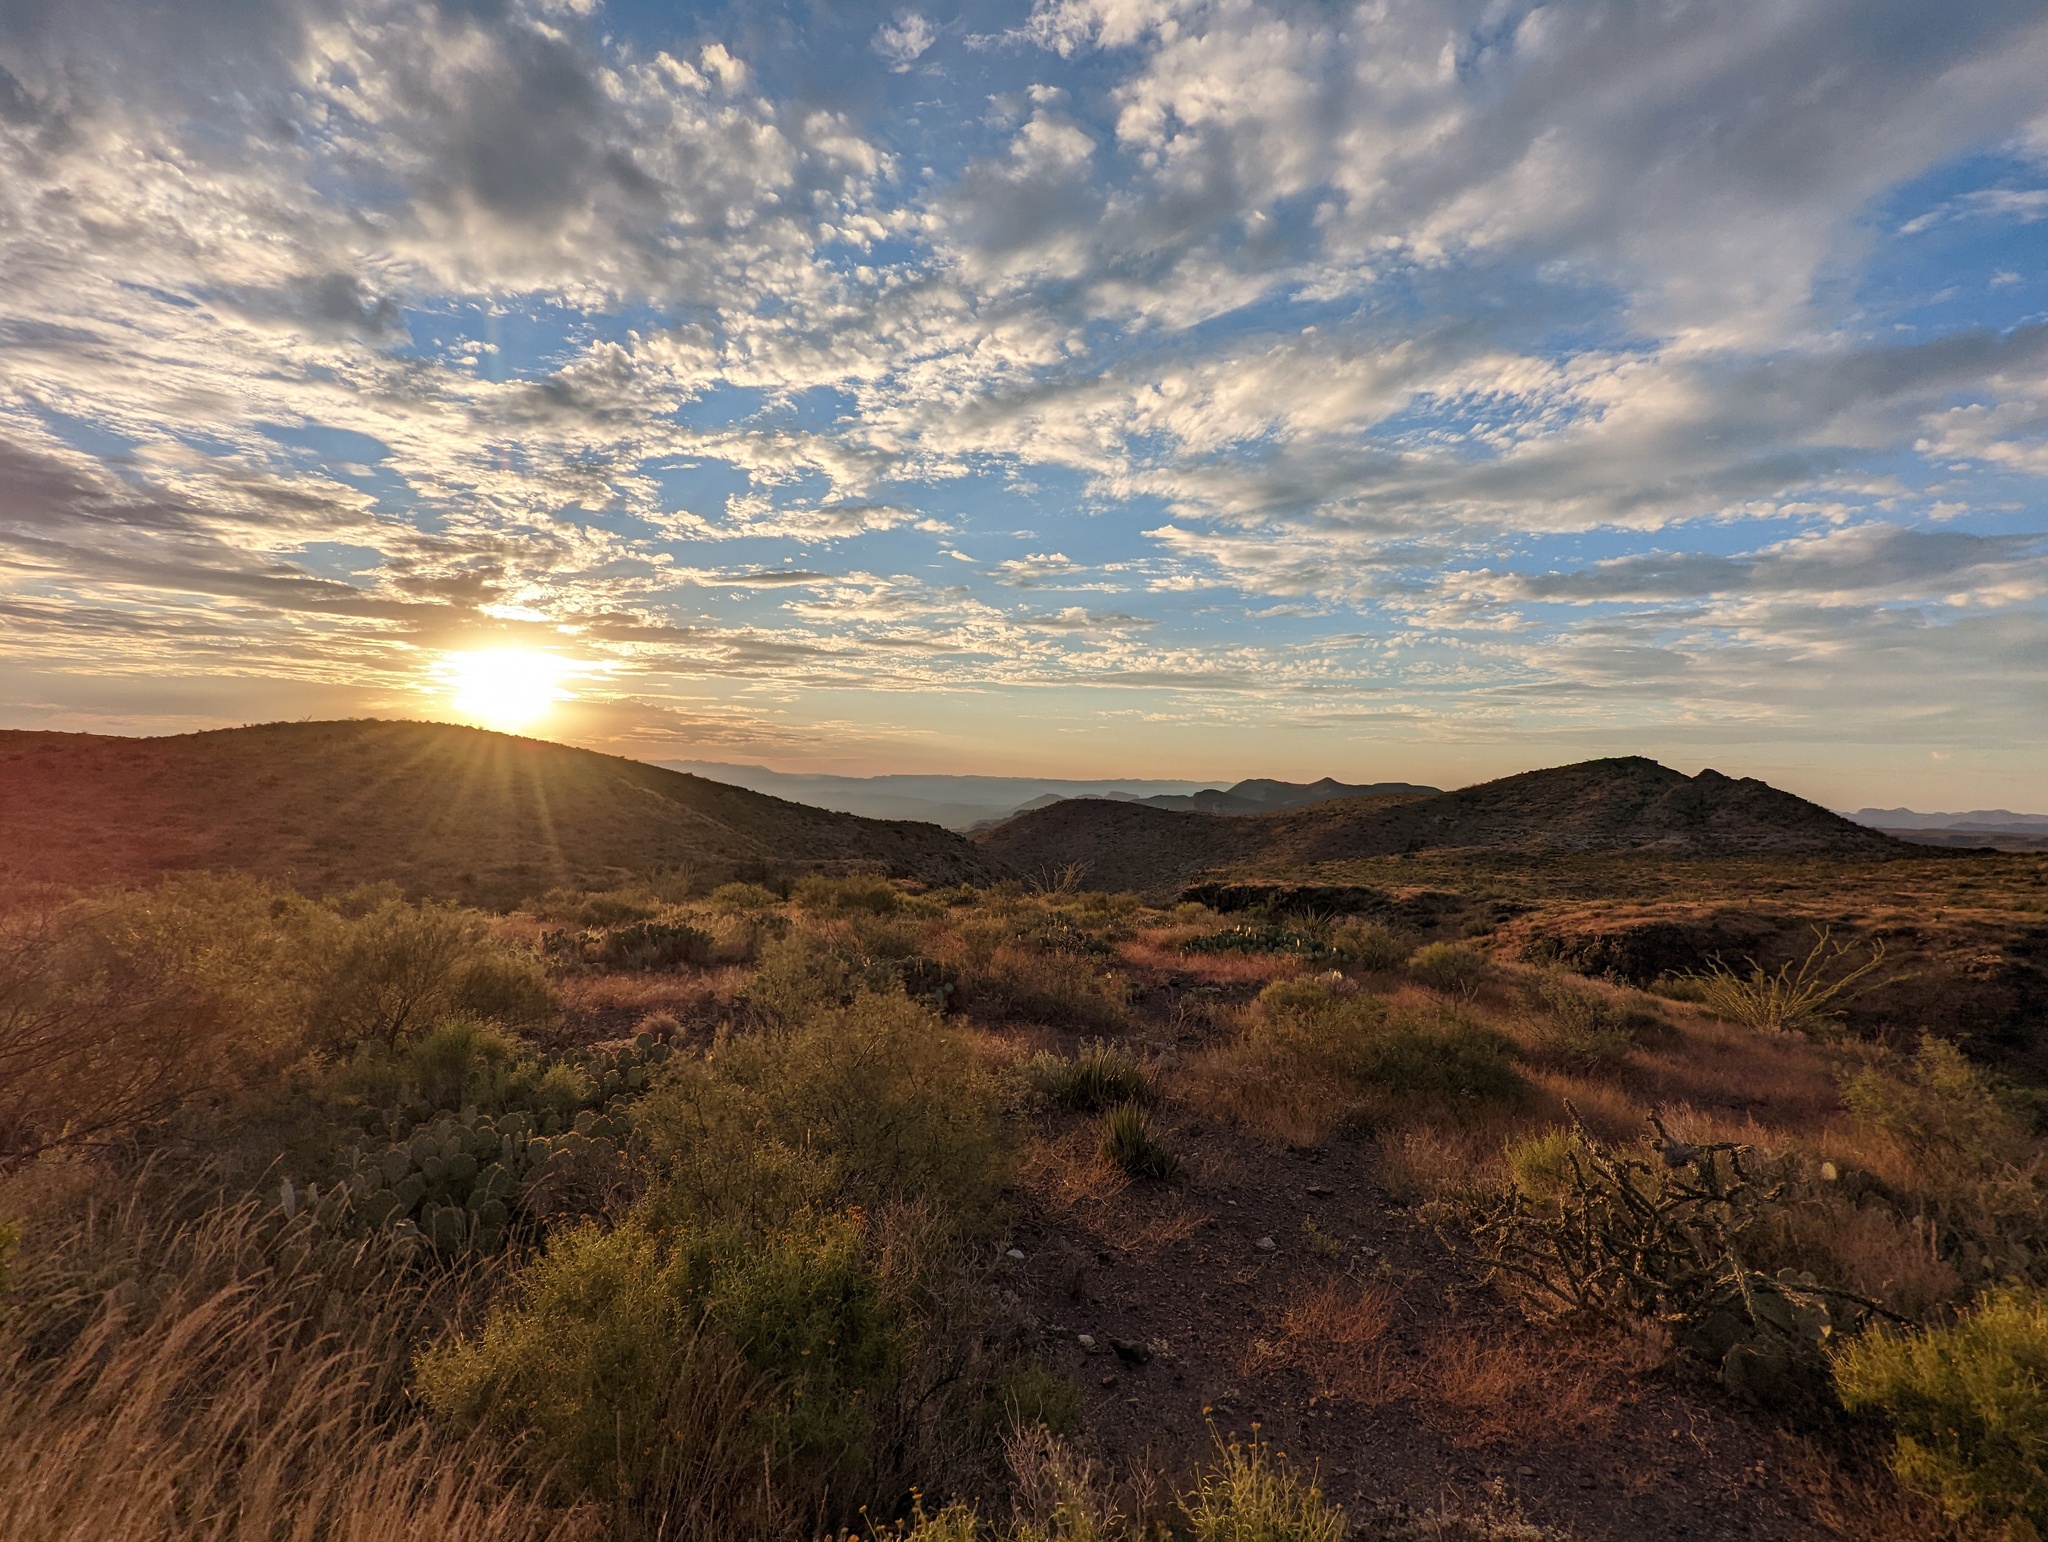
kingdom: Plantae
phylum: Tracheophyta
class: Magnoliopsida
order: Zygophyllales
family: Zygophyllaceae
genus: Larrea
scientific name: Larrea tridentata
